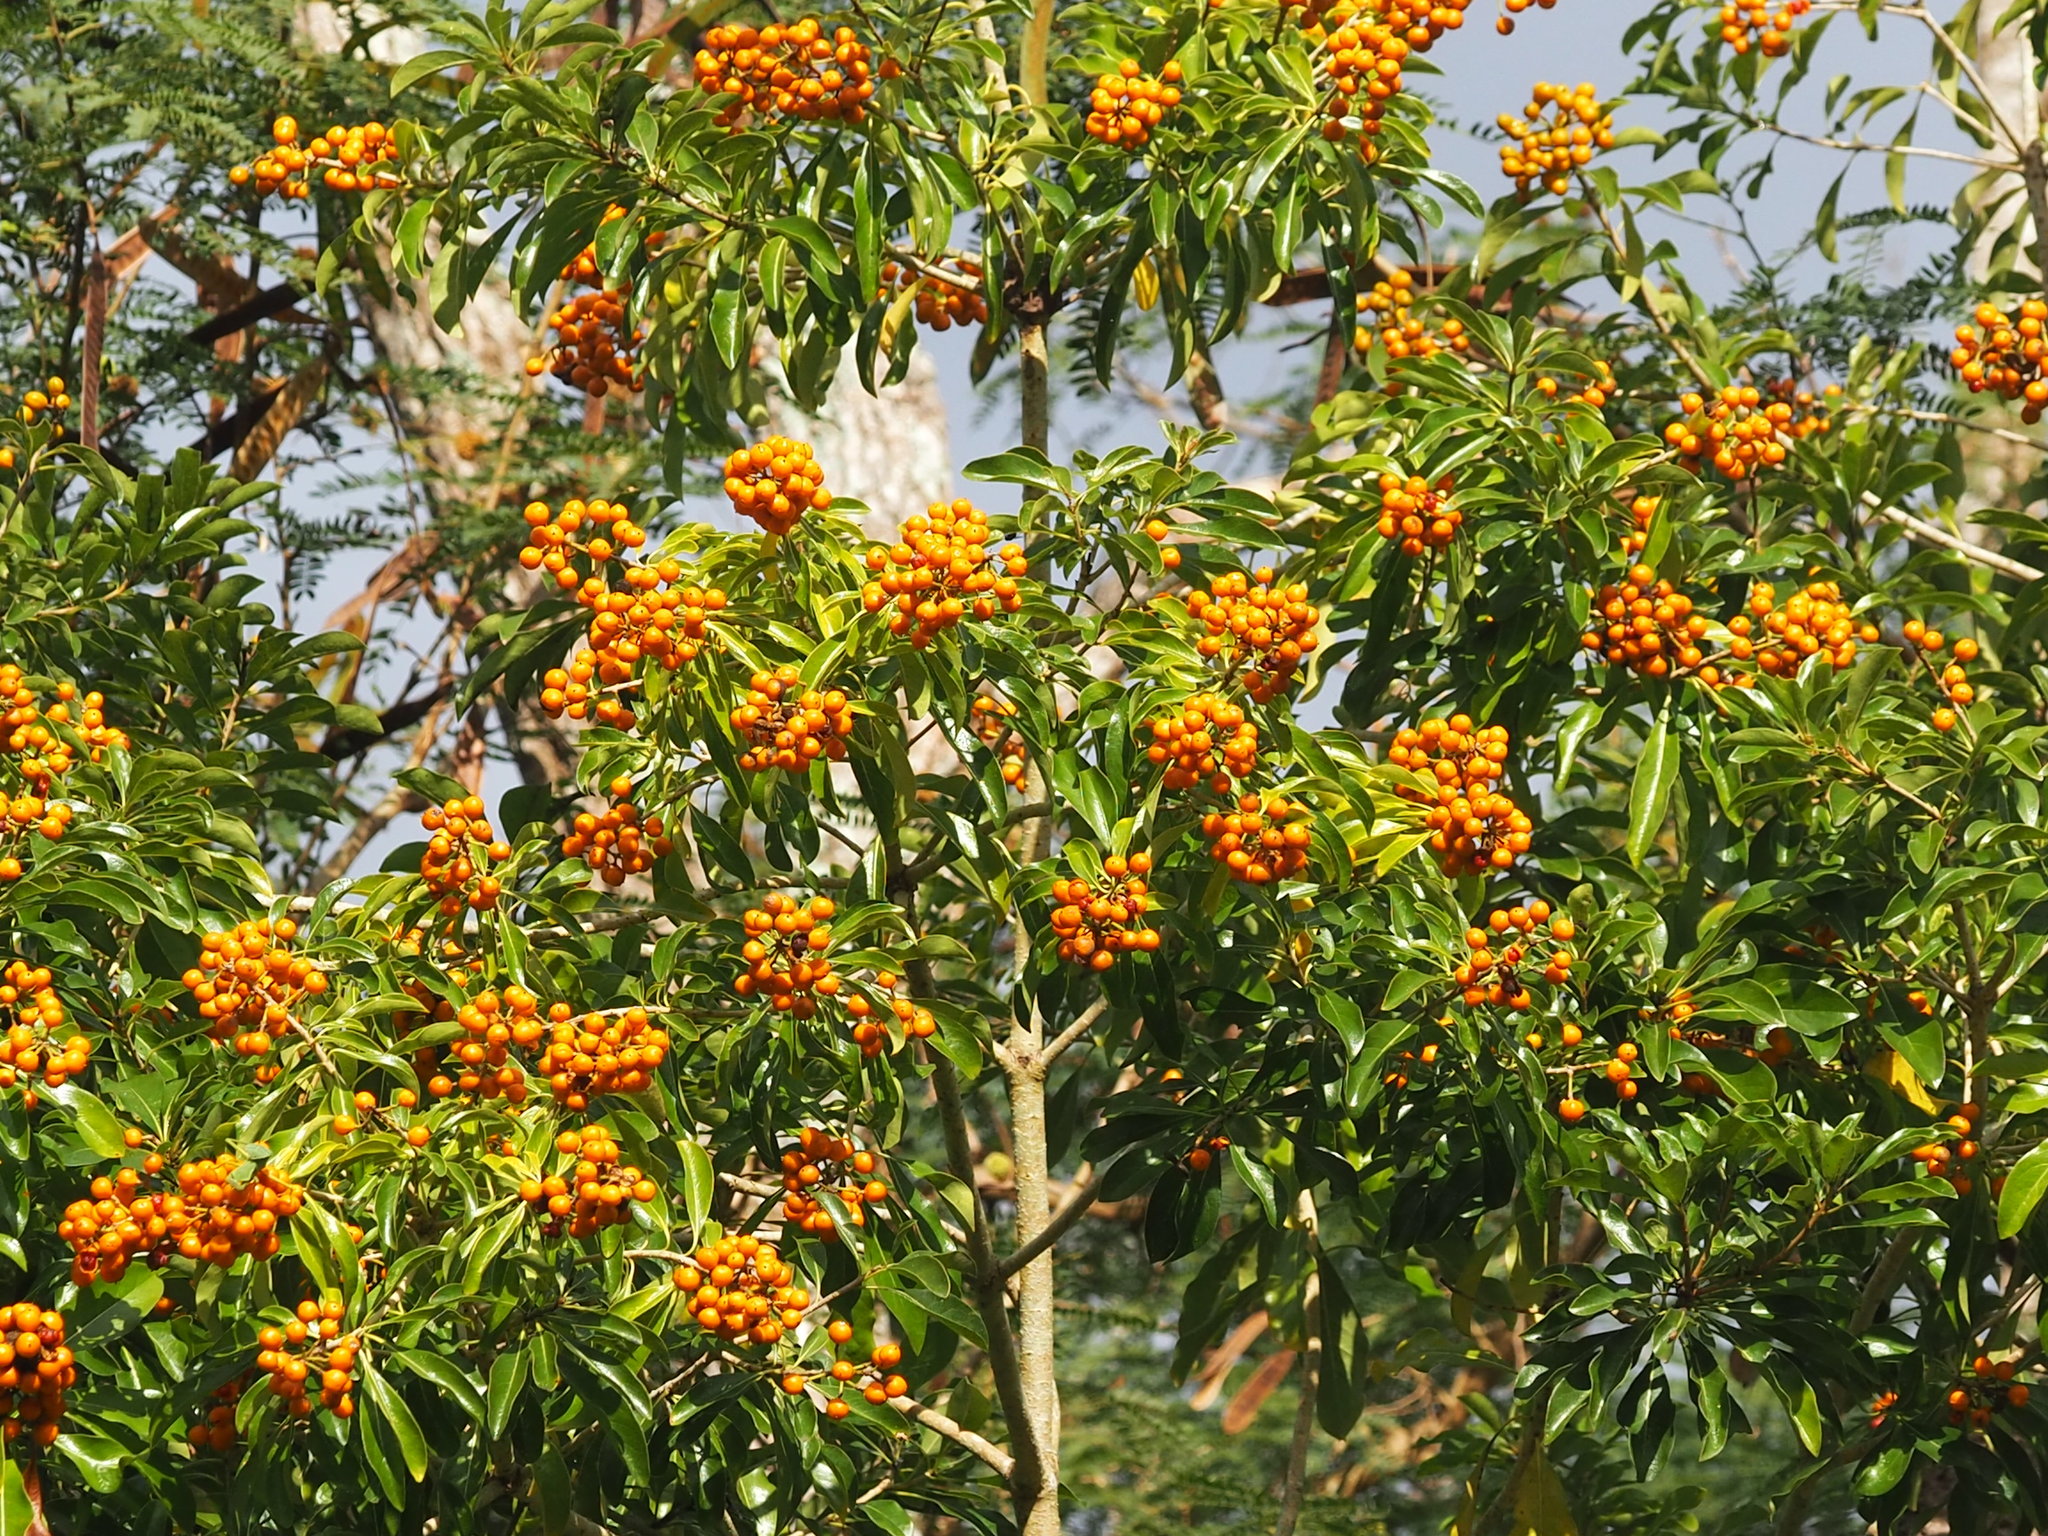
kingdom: Plantae
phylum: Tracheophyta
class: Magnoliopsida
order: Apiales
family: Pittosporaceae
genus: Pittosporum
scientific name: Pittosporum pentandrum
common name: Taiwanese cheesewood
